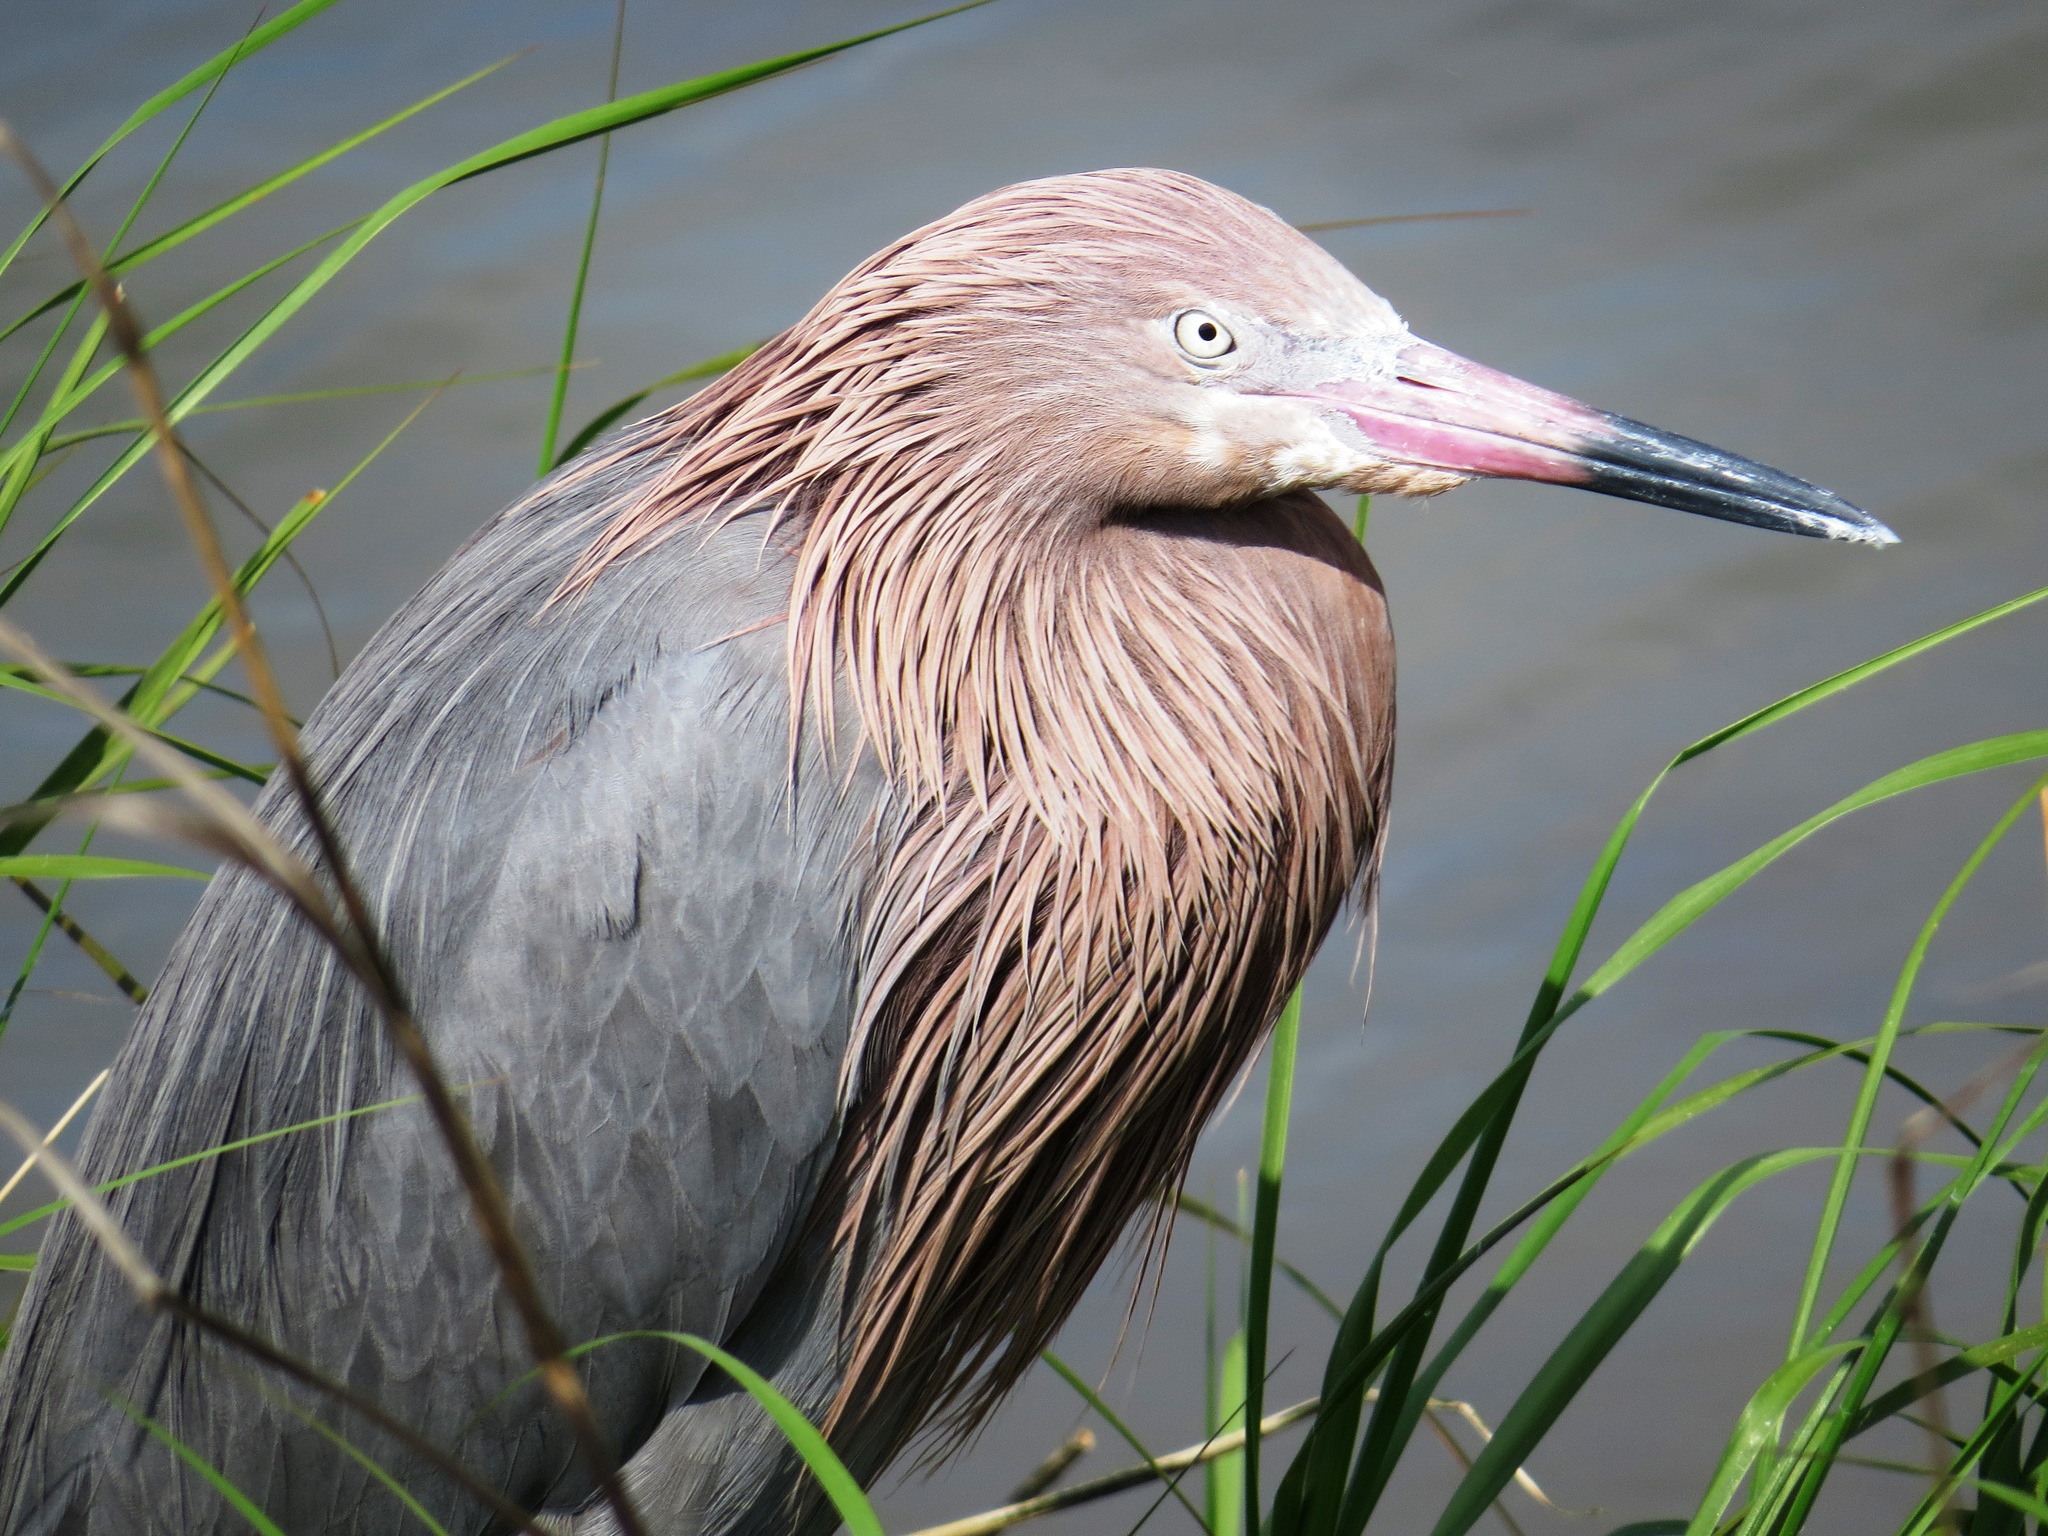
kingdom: Animalia
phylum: Chordata
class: Aves
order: Pelecaniformes
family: Ardeidae
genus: Egretta
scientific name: Egretta rufescens
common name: Reddish egret
